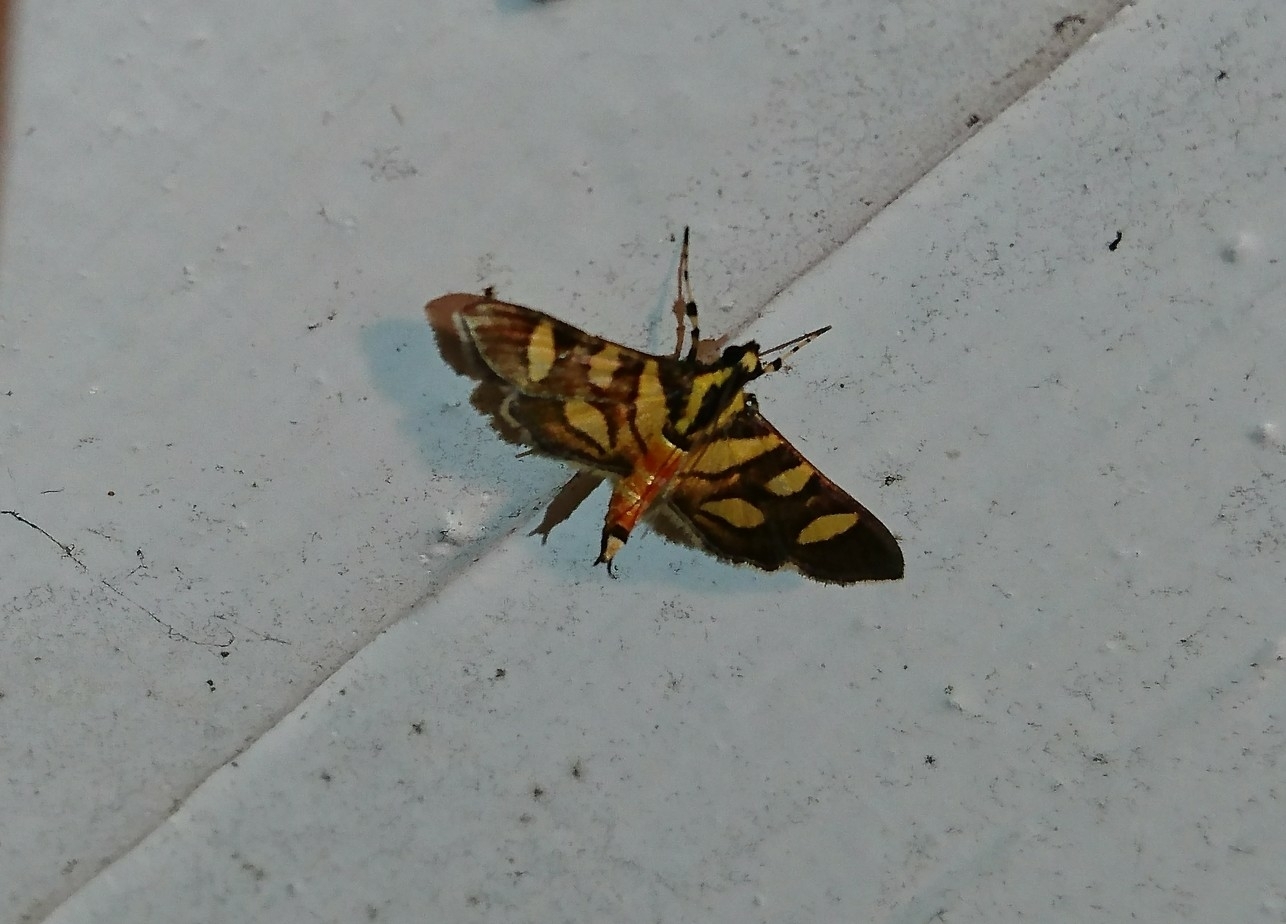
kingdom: Animalia
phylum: Arthropoda
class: Insecta
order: Lepidoptera
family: Crambidae
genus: Syngamia
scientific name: Syngamia florella
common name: Orange-spotted flower moth
